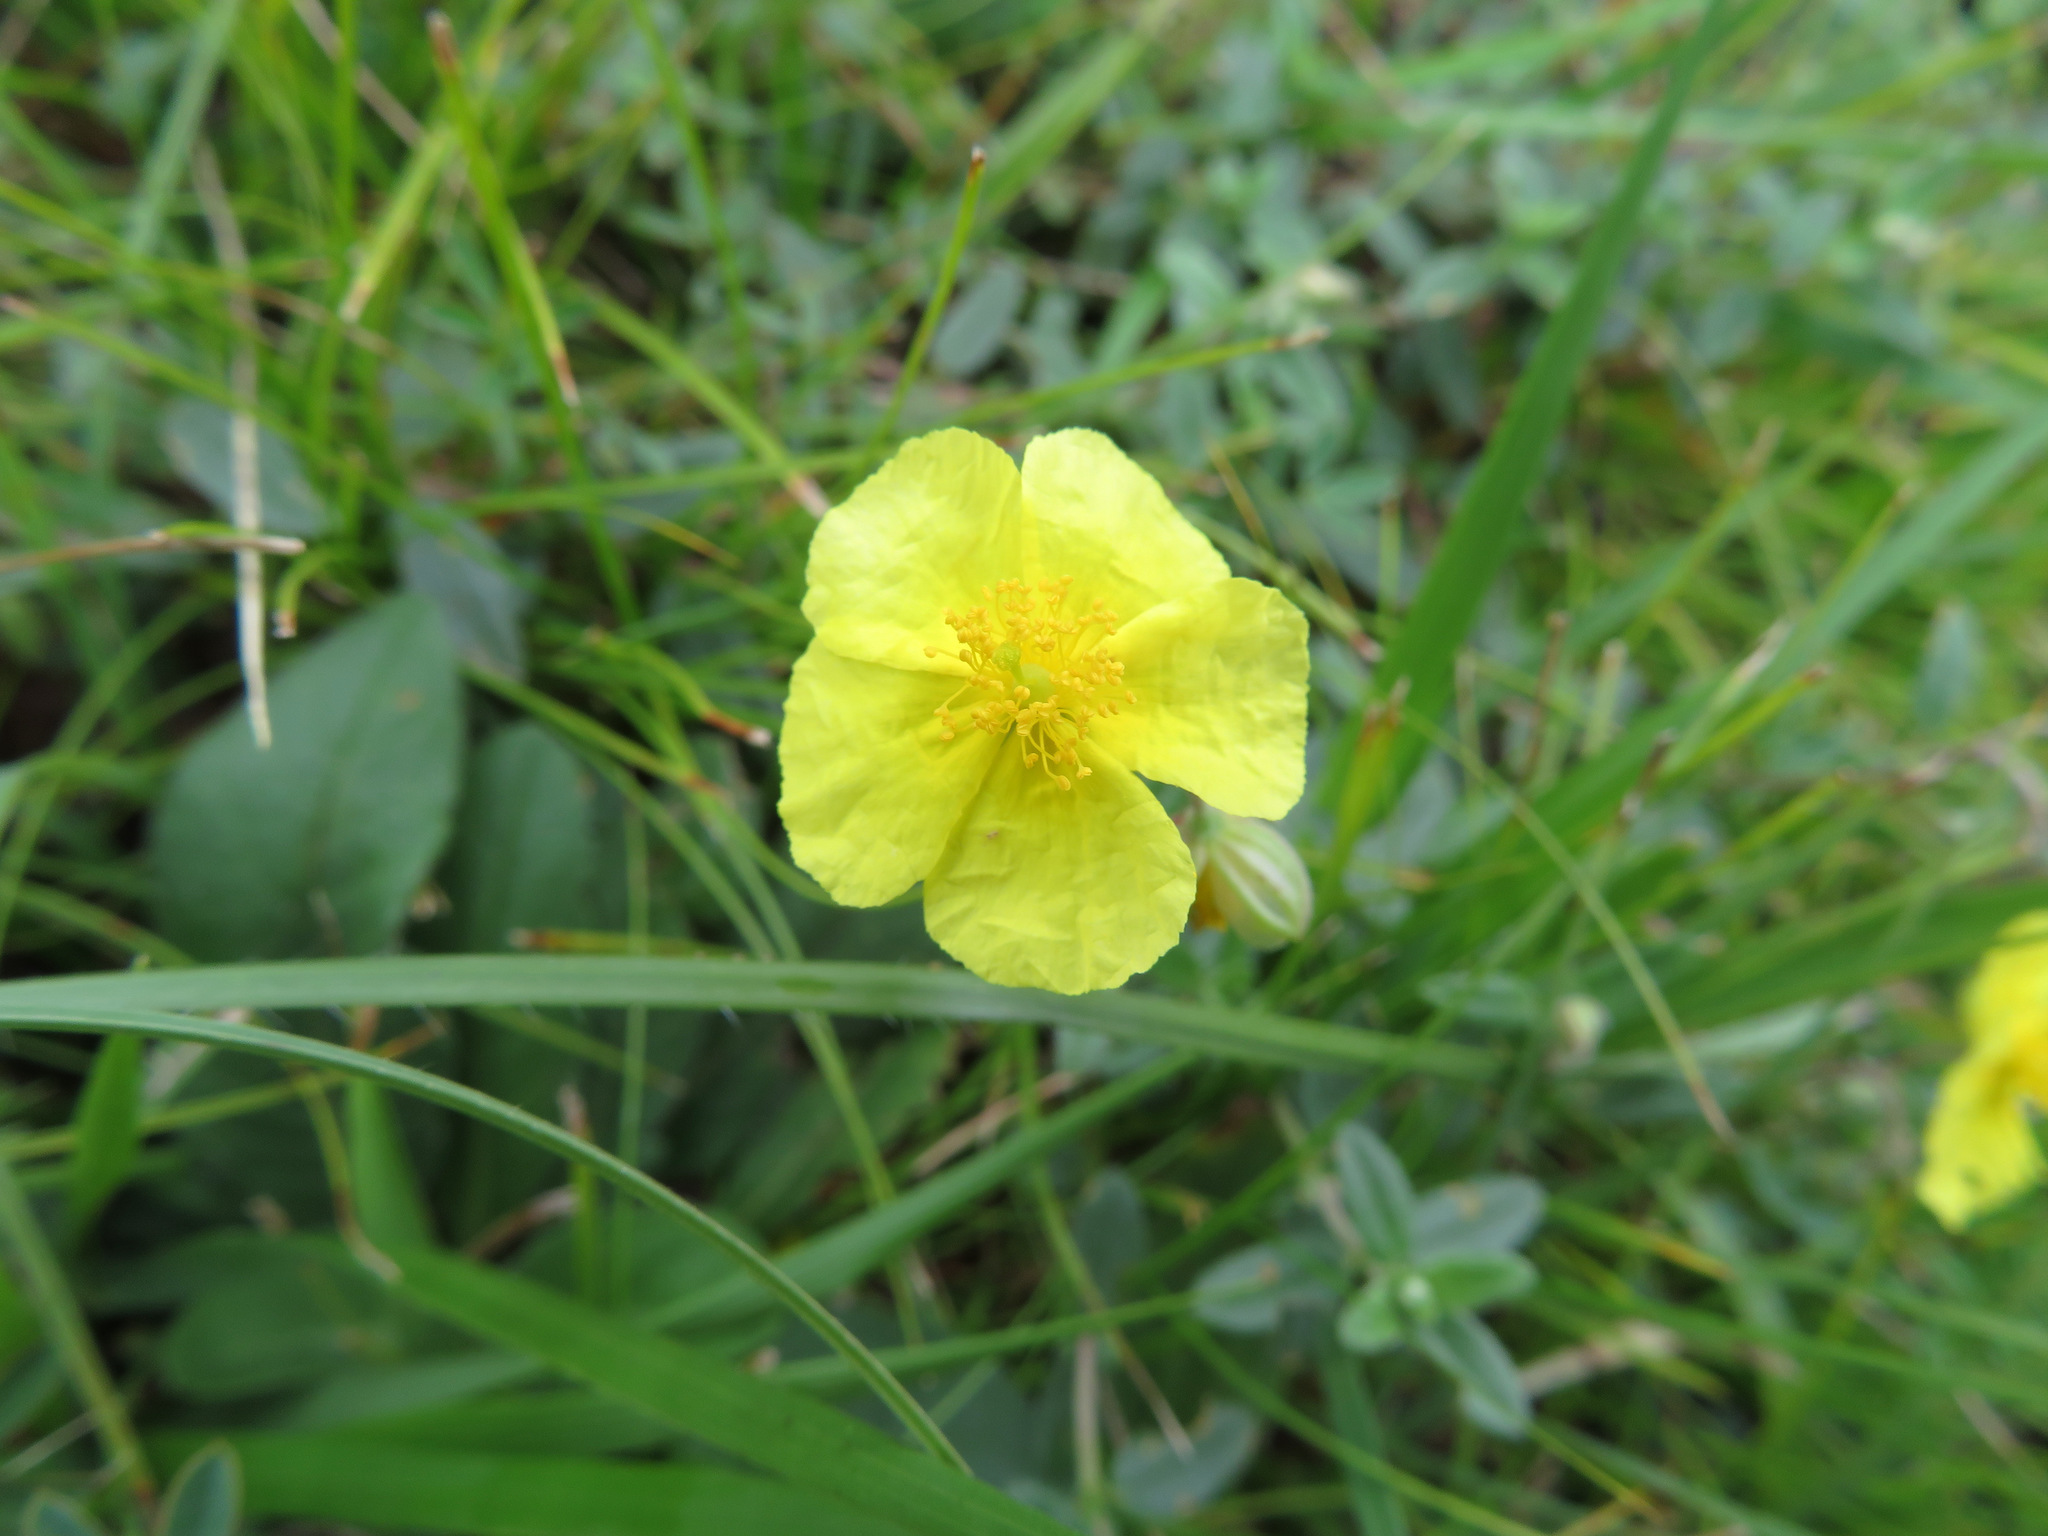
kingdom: Plantae
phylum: Tracheophyta
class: Magnoliopsida
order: Malvales
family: Cistaceae
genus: Helianthemum
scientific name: Helianthemum nummularium
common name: Common rock-rose
